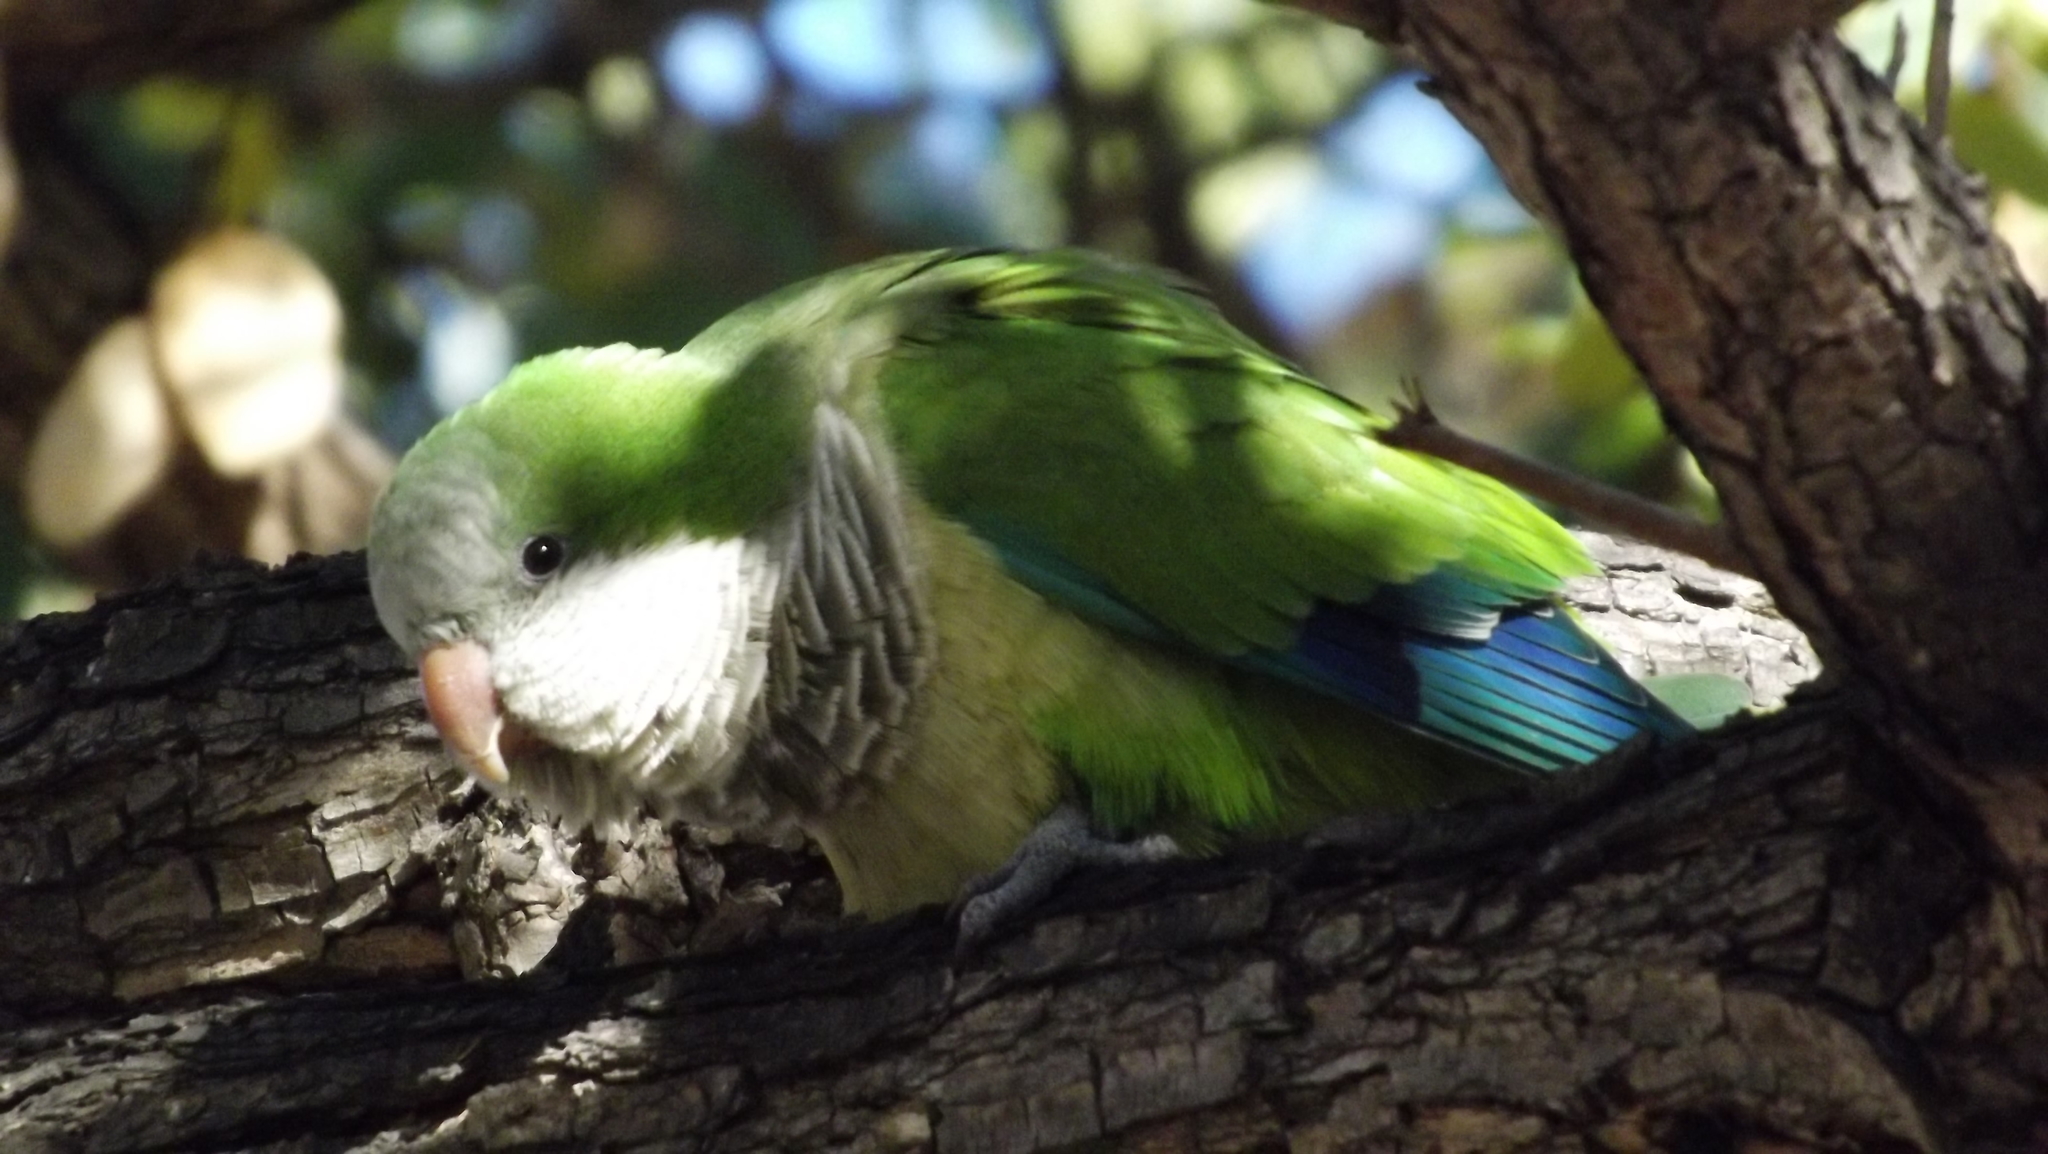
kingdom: Animalia
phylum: Chordata
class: Aves
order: Psittaciformes
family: Psittacidae
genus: Myiopsitta
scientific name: Myiopsitta monachus
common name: Monk parakeet
